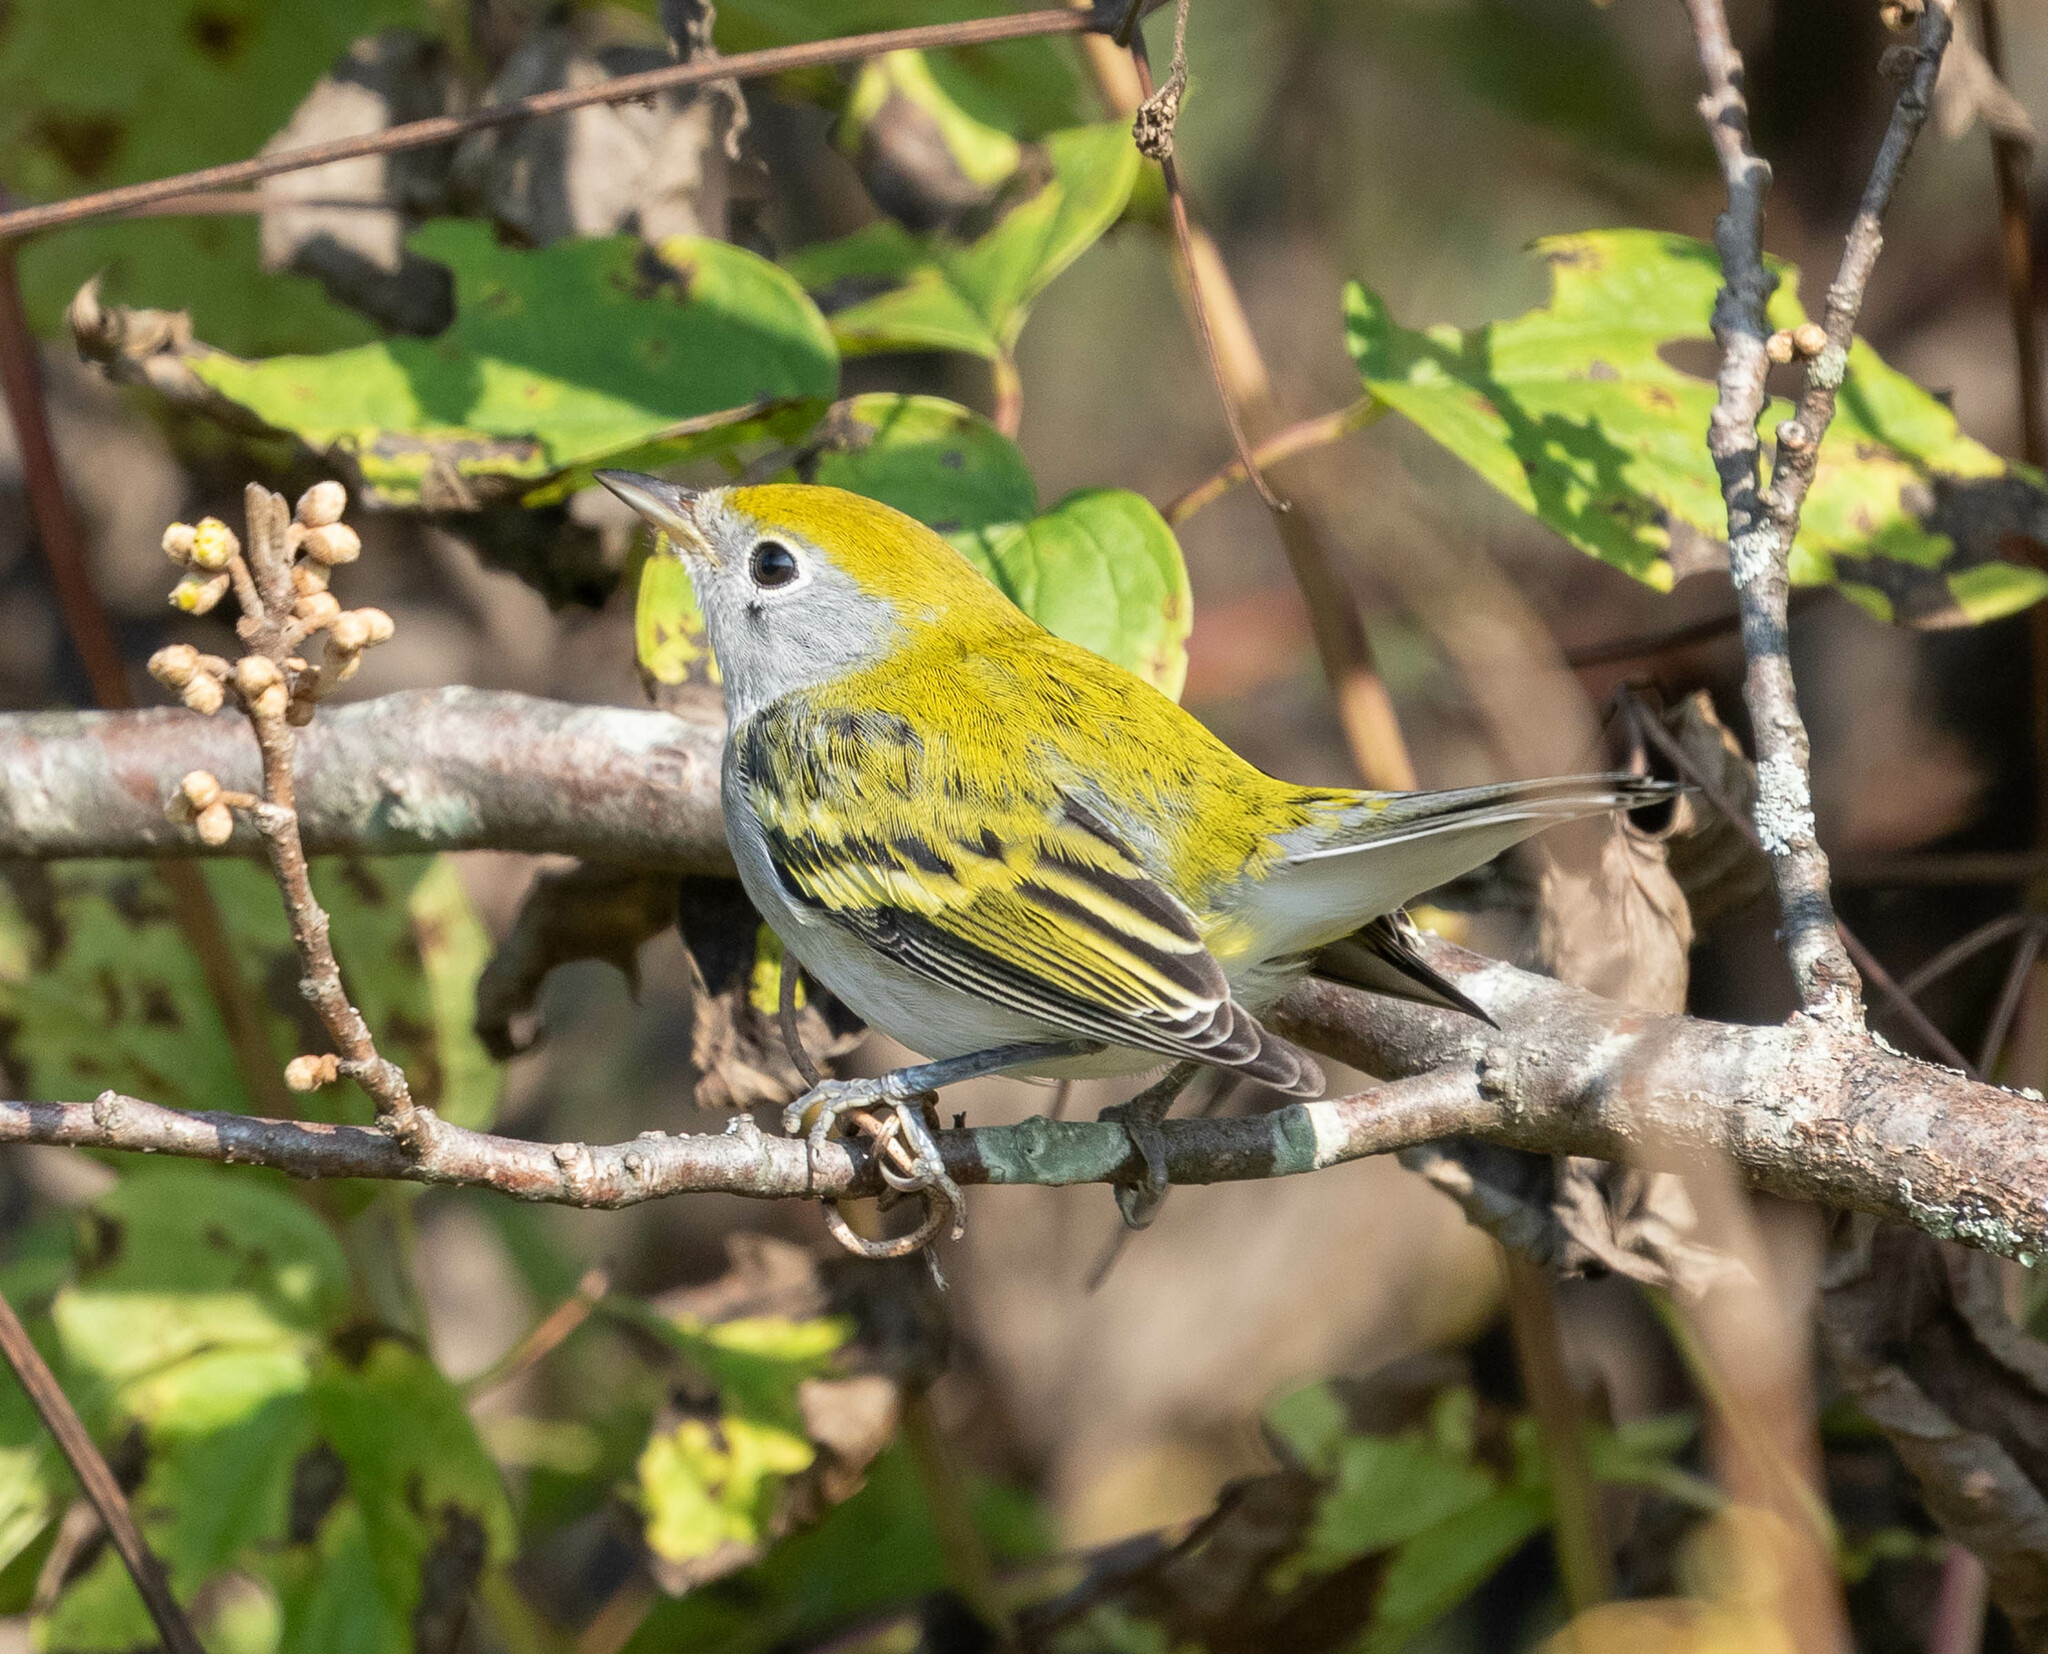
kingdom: Animalia
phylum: Chordata
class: Aves
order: Passeriformes
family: Parulidae
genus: Setophaga
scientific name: Setophaga pensylvanica
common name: Chestnut-sided warbler
